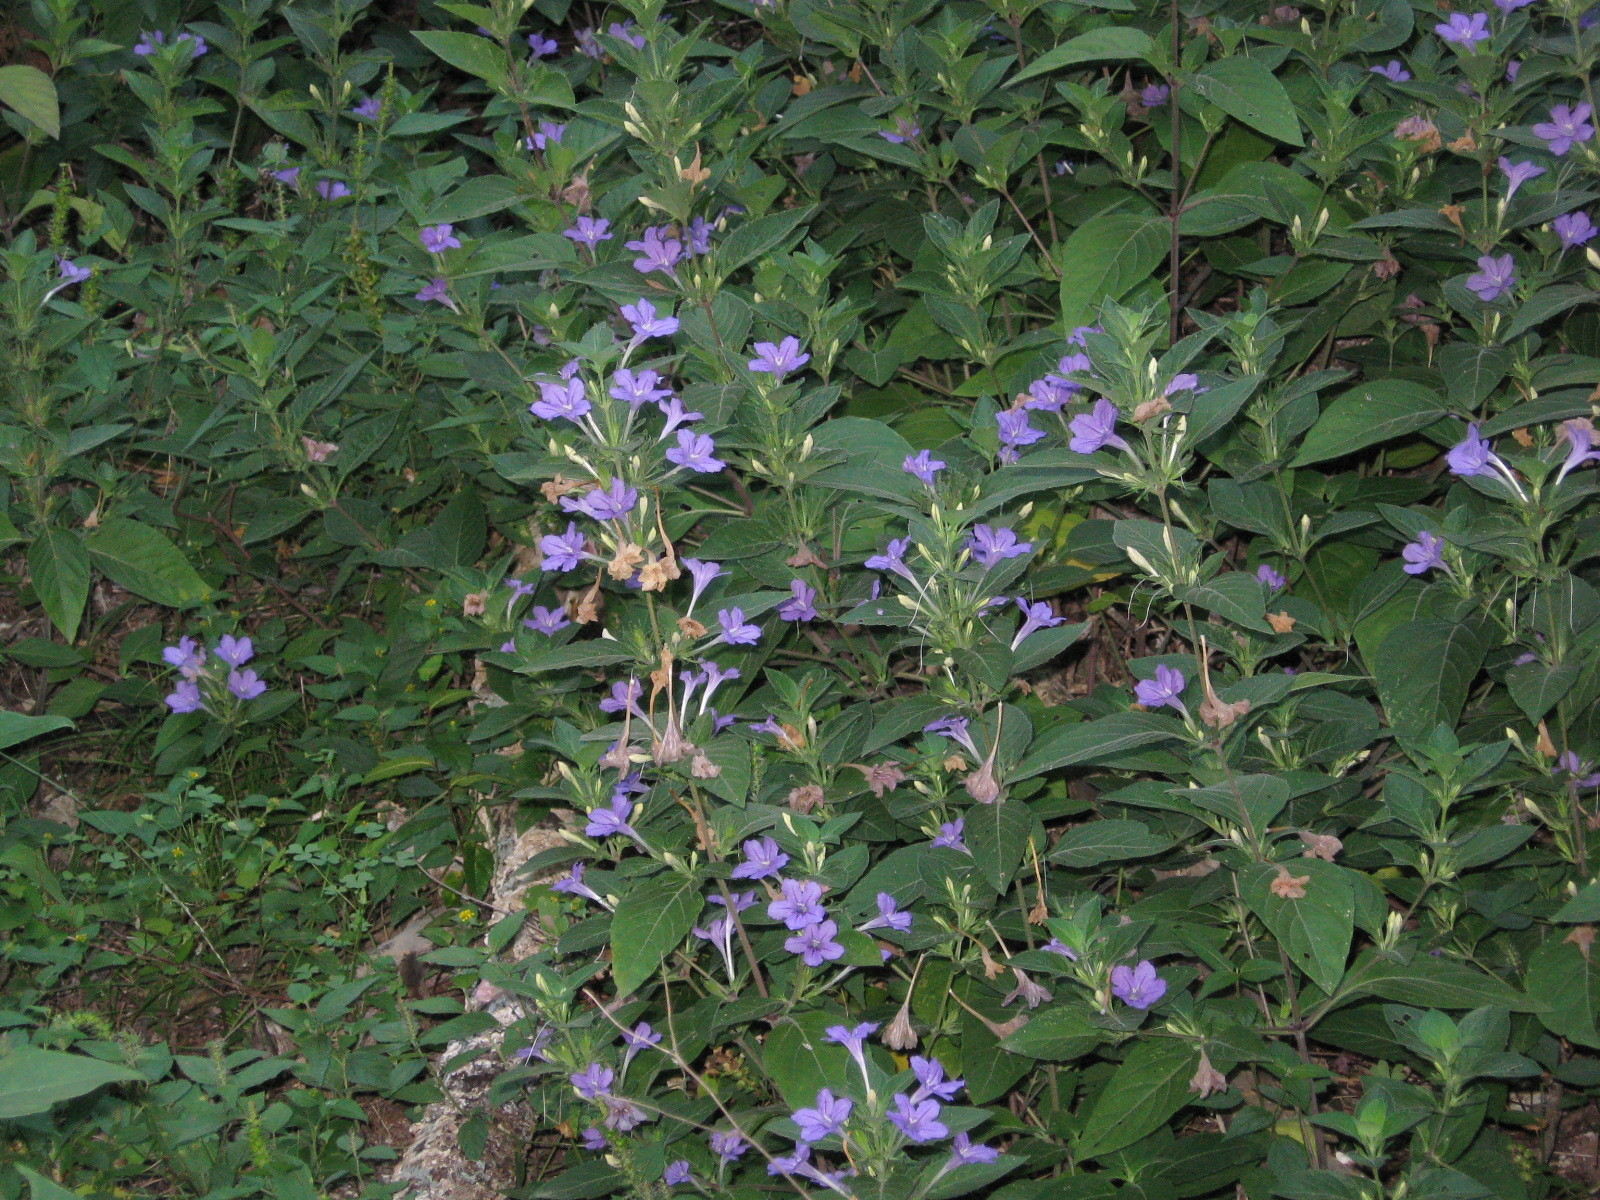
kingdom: Plantae
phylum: Tracheophyta
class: Magnoliopsida
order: Lamiales
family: Acanthaceae
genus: Ruellia
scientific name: Ruellia drummondiana
